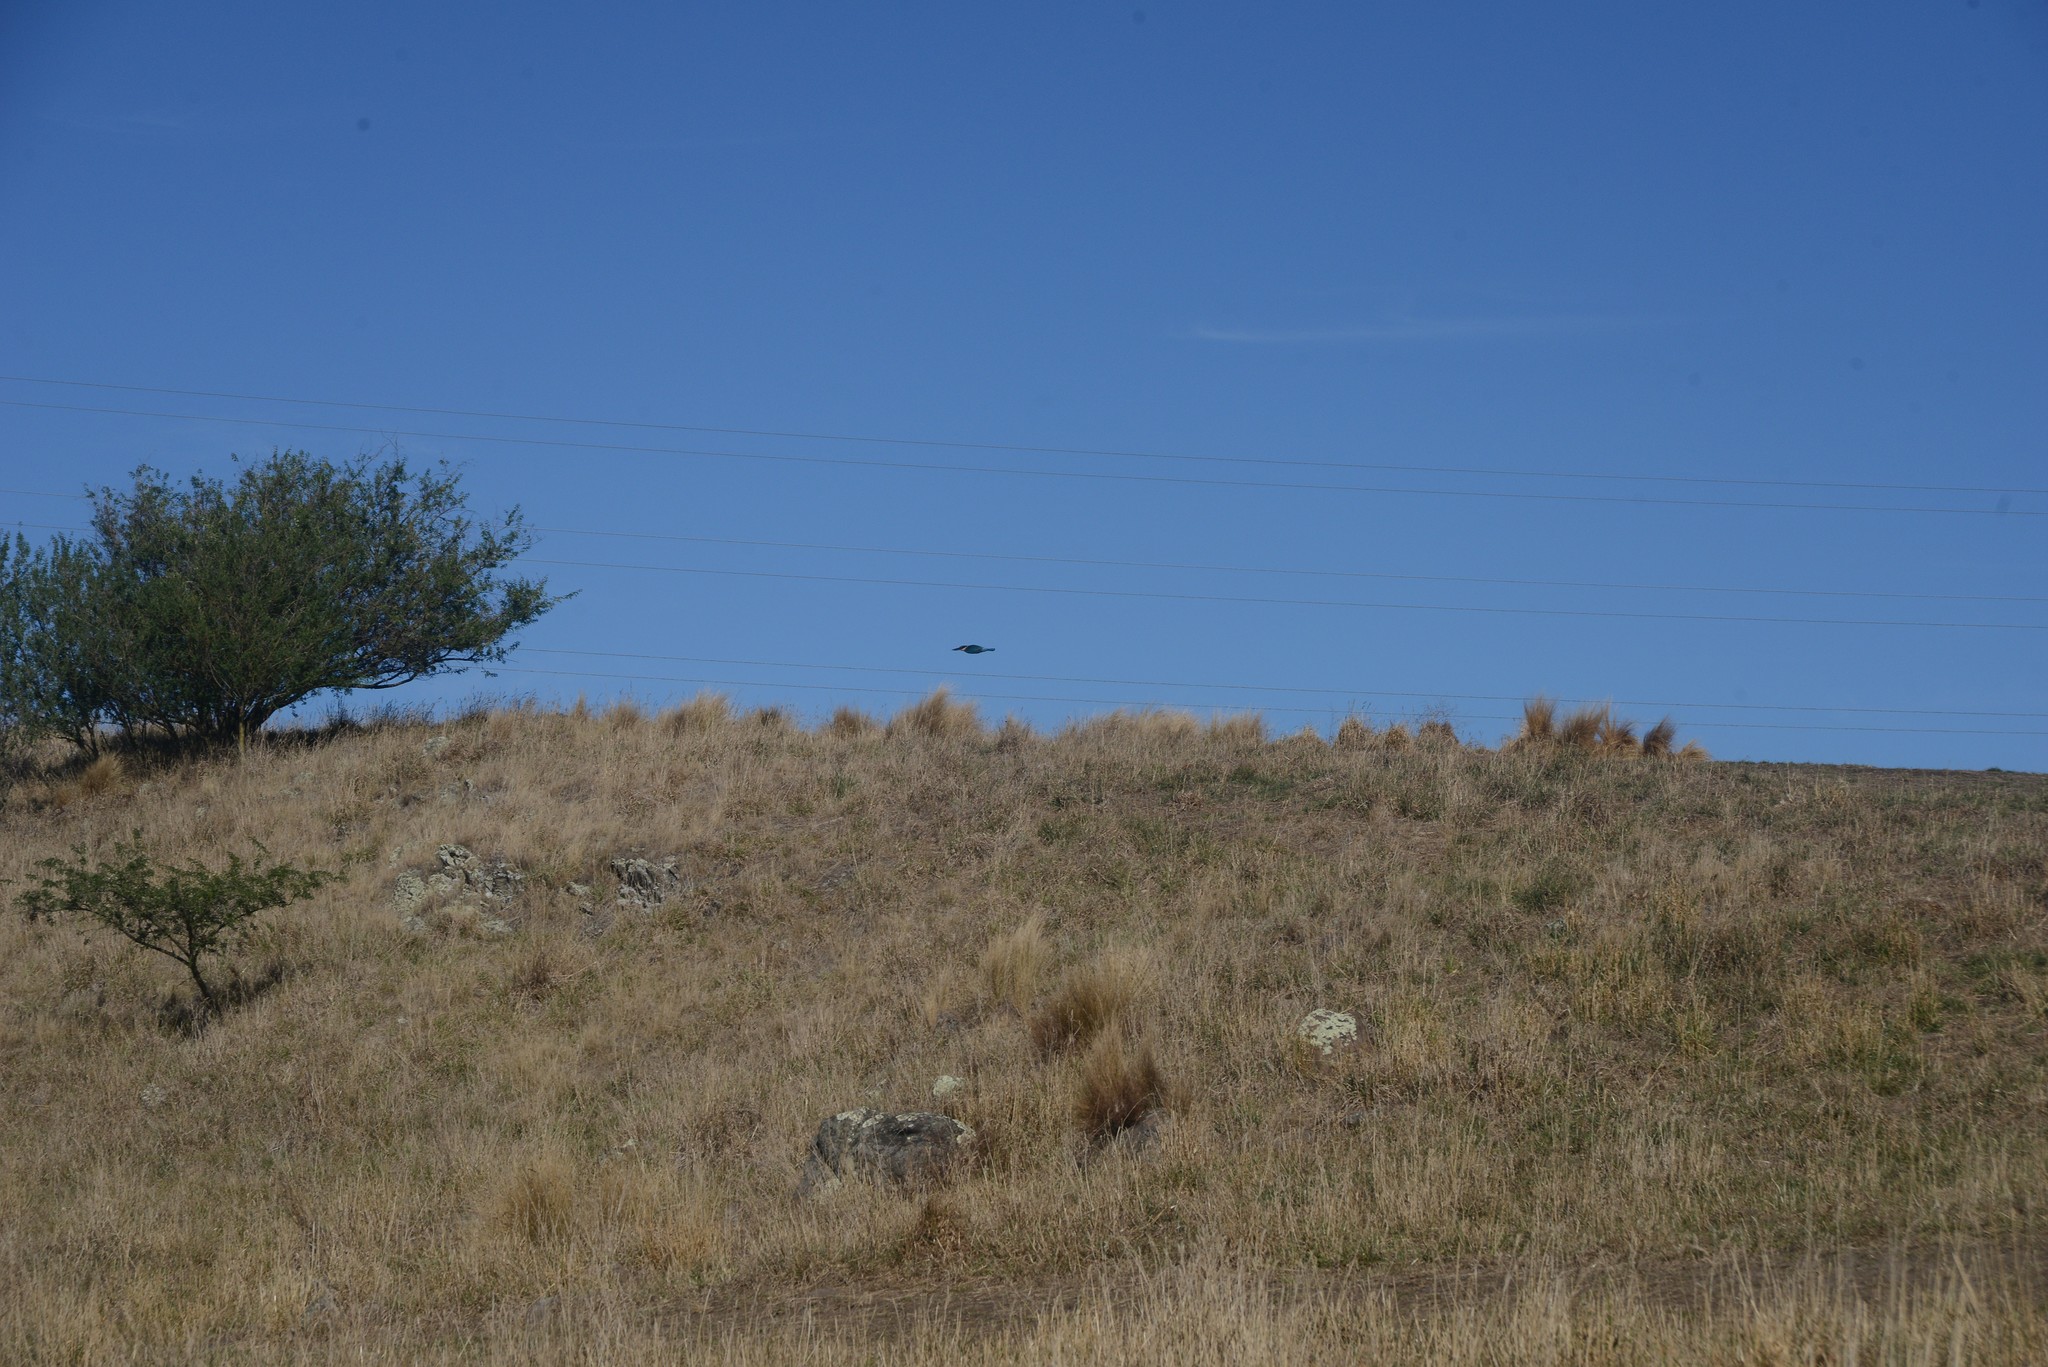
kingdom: Animalia
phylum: Chordata
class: Aves
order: Coraciiformes
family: Alcedinidae
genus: Todiramphus
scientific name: Todiramphus sanctus
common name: Sacred kingfisher
